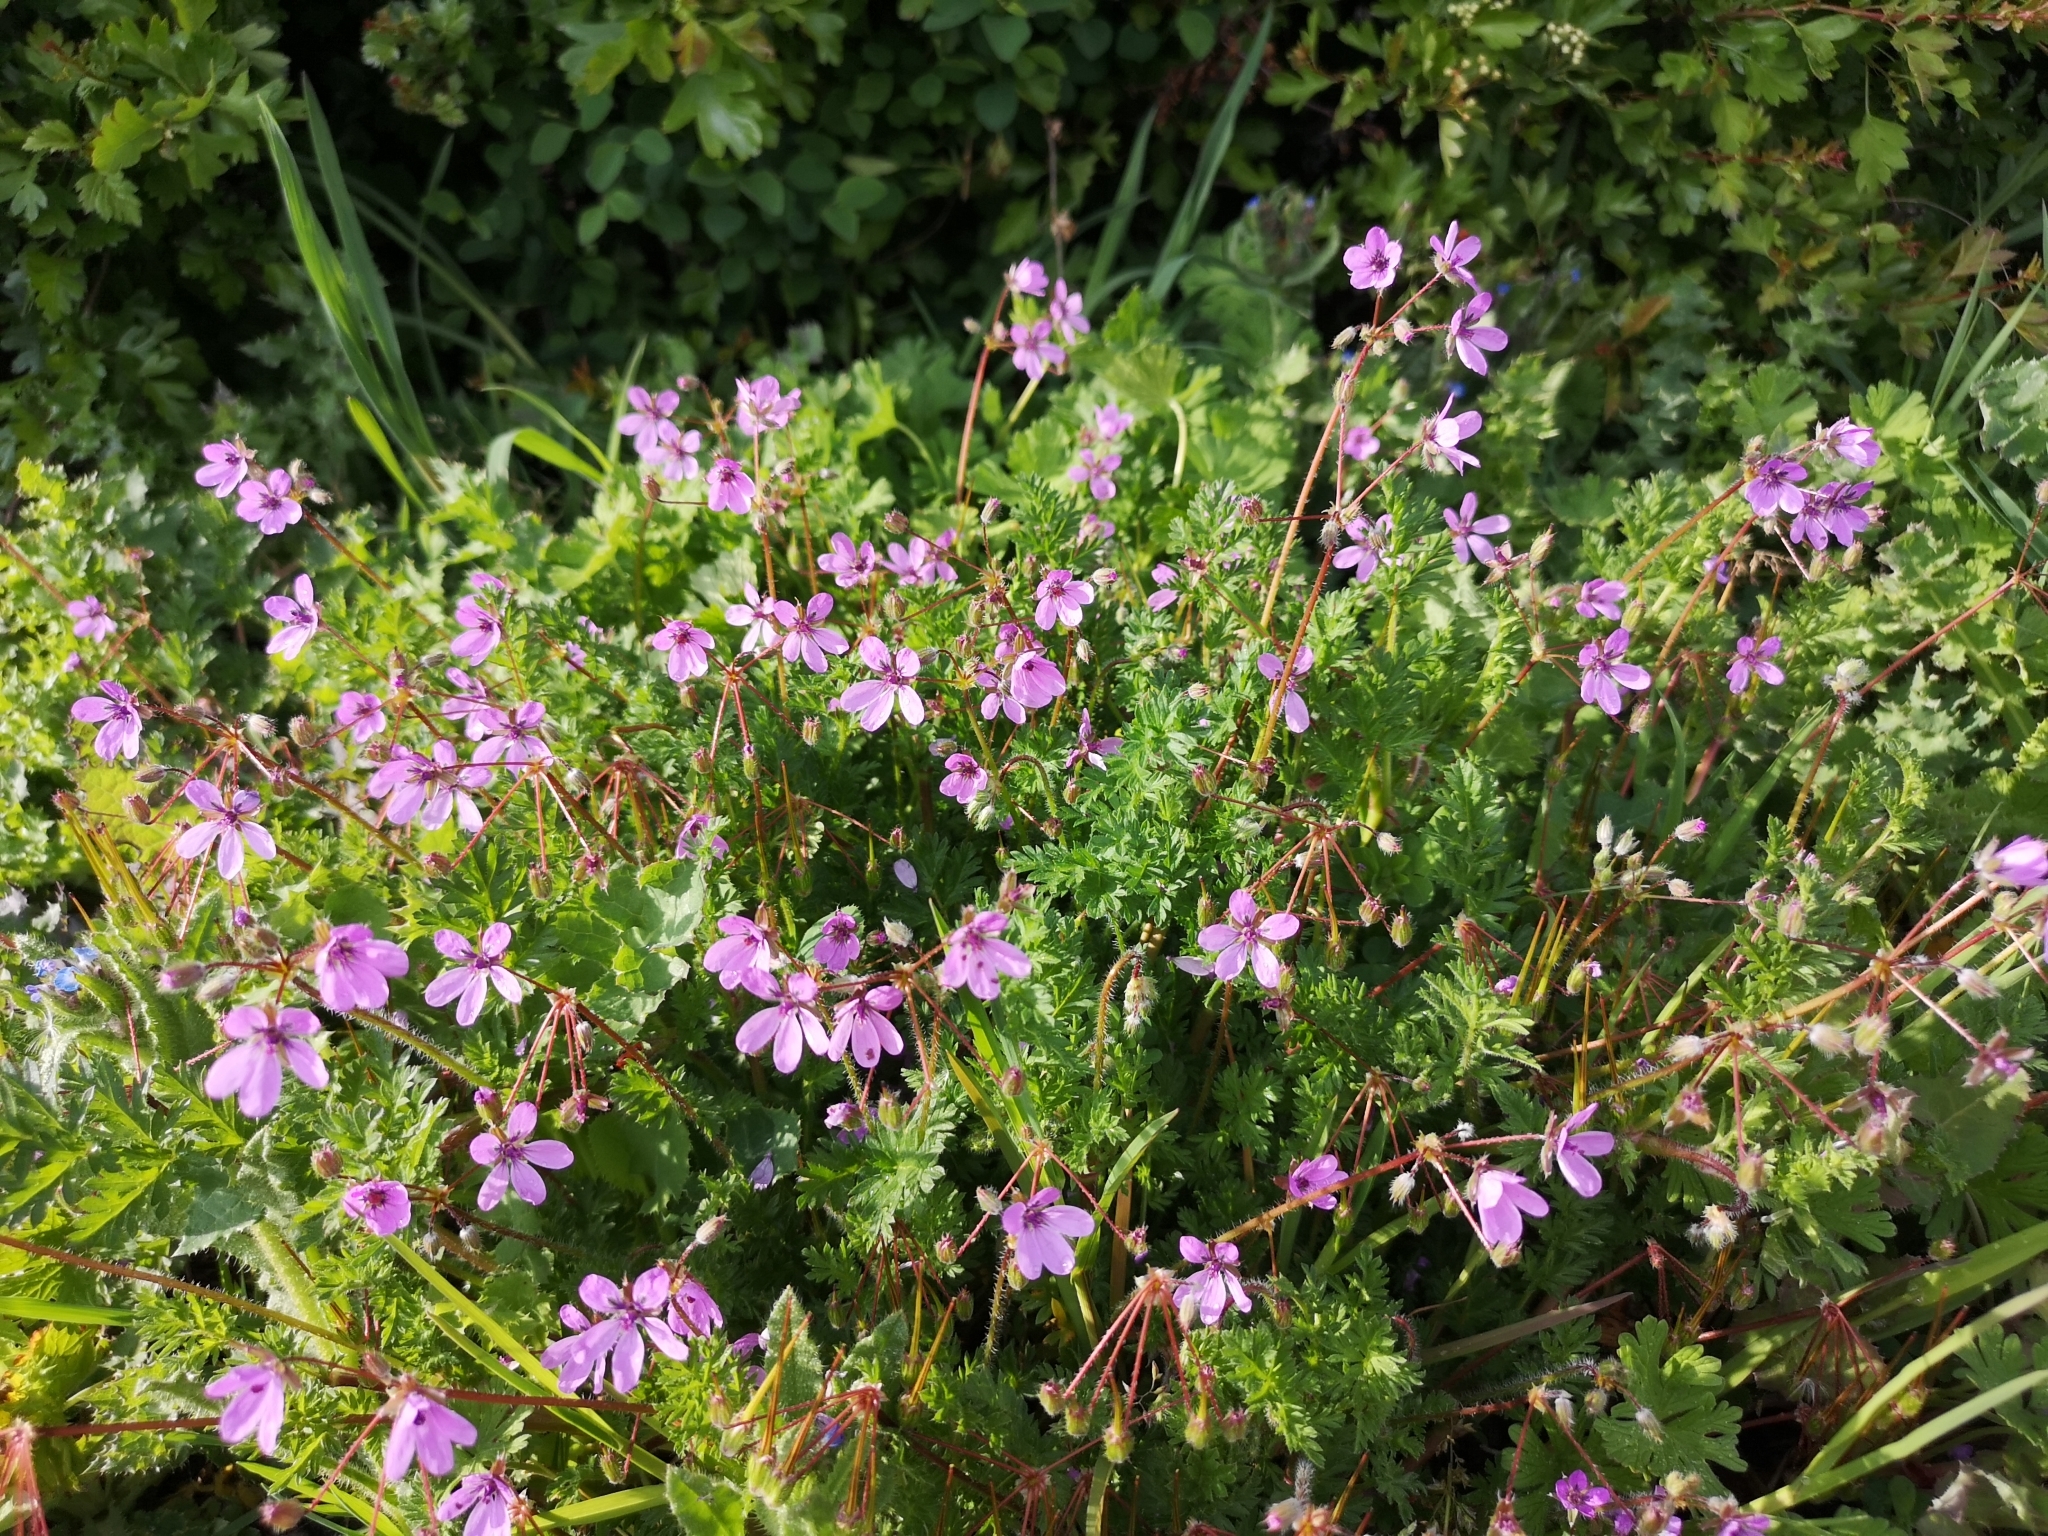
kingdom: Plantae
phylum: Tracheophyta
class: Magnoliopsida
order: Geraniales
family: Geraniaceae
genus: Erodium
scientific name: Erodium cicutarium
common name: Common stork's-bill
